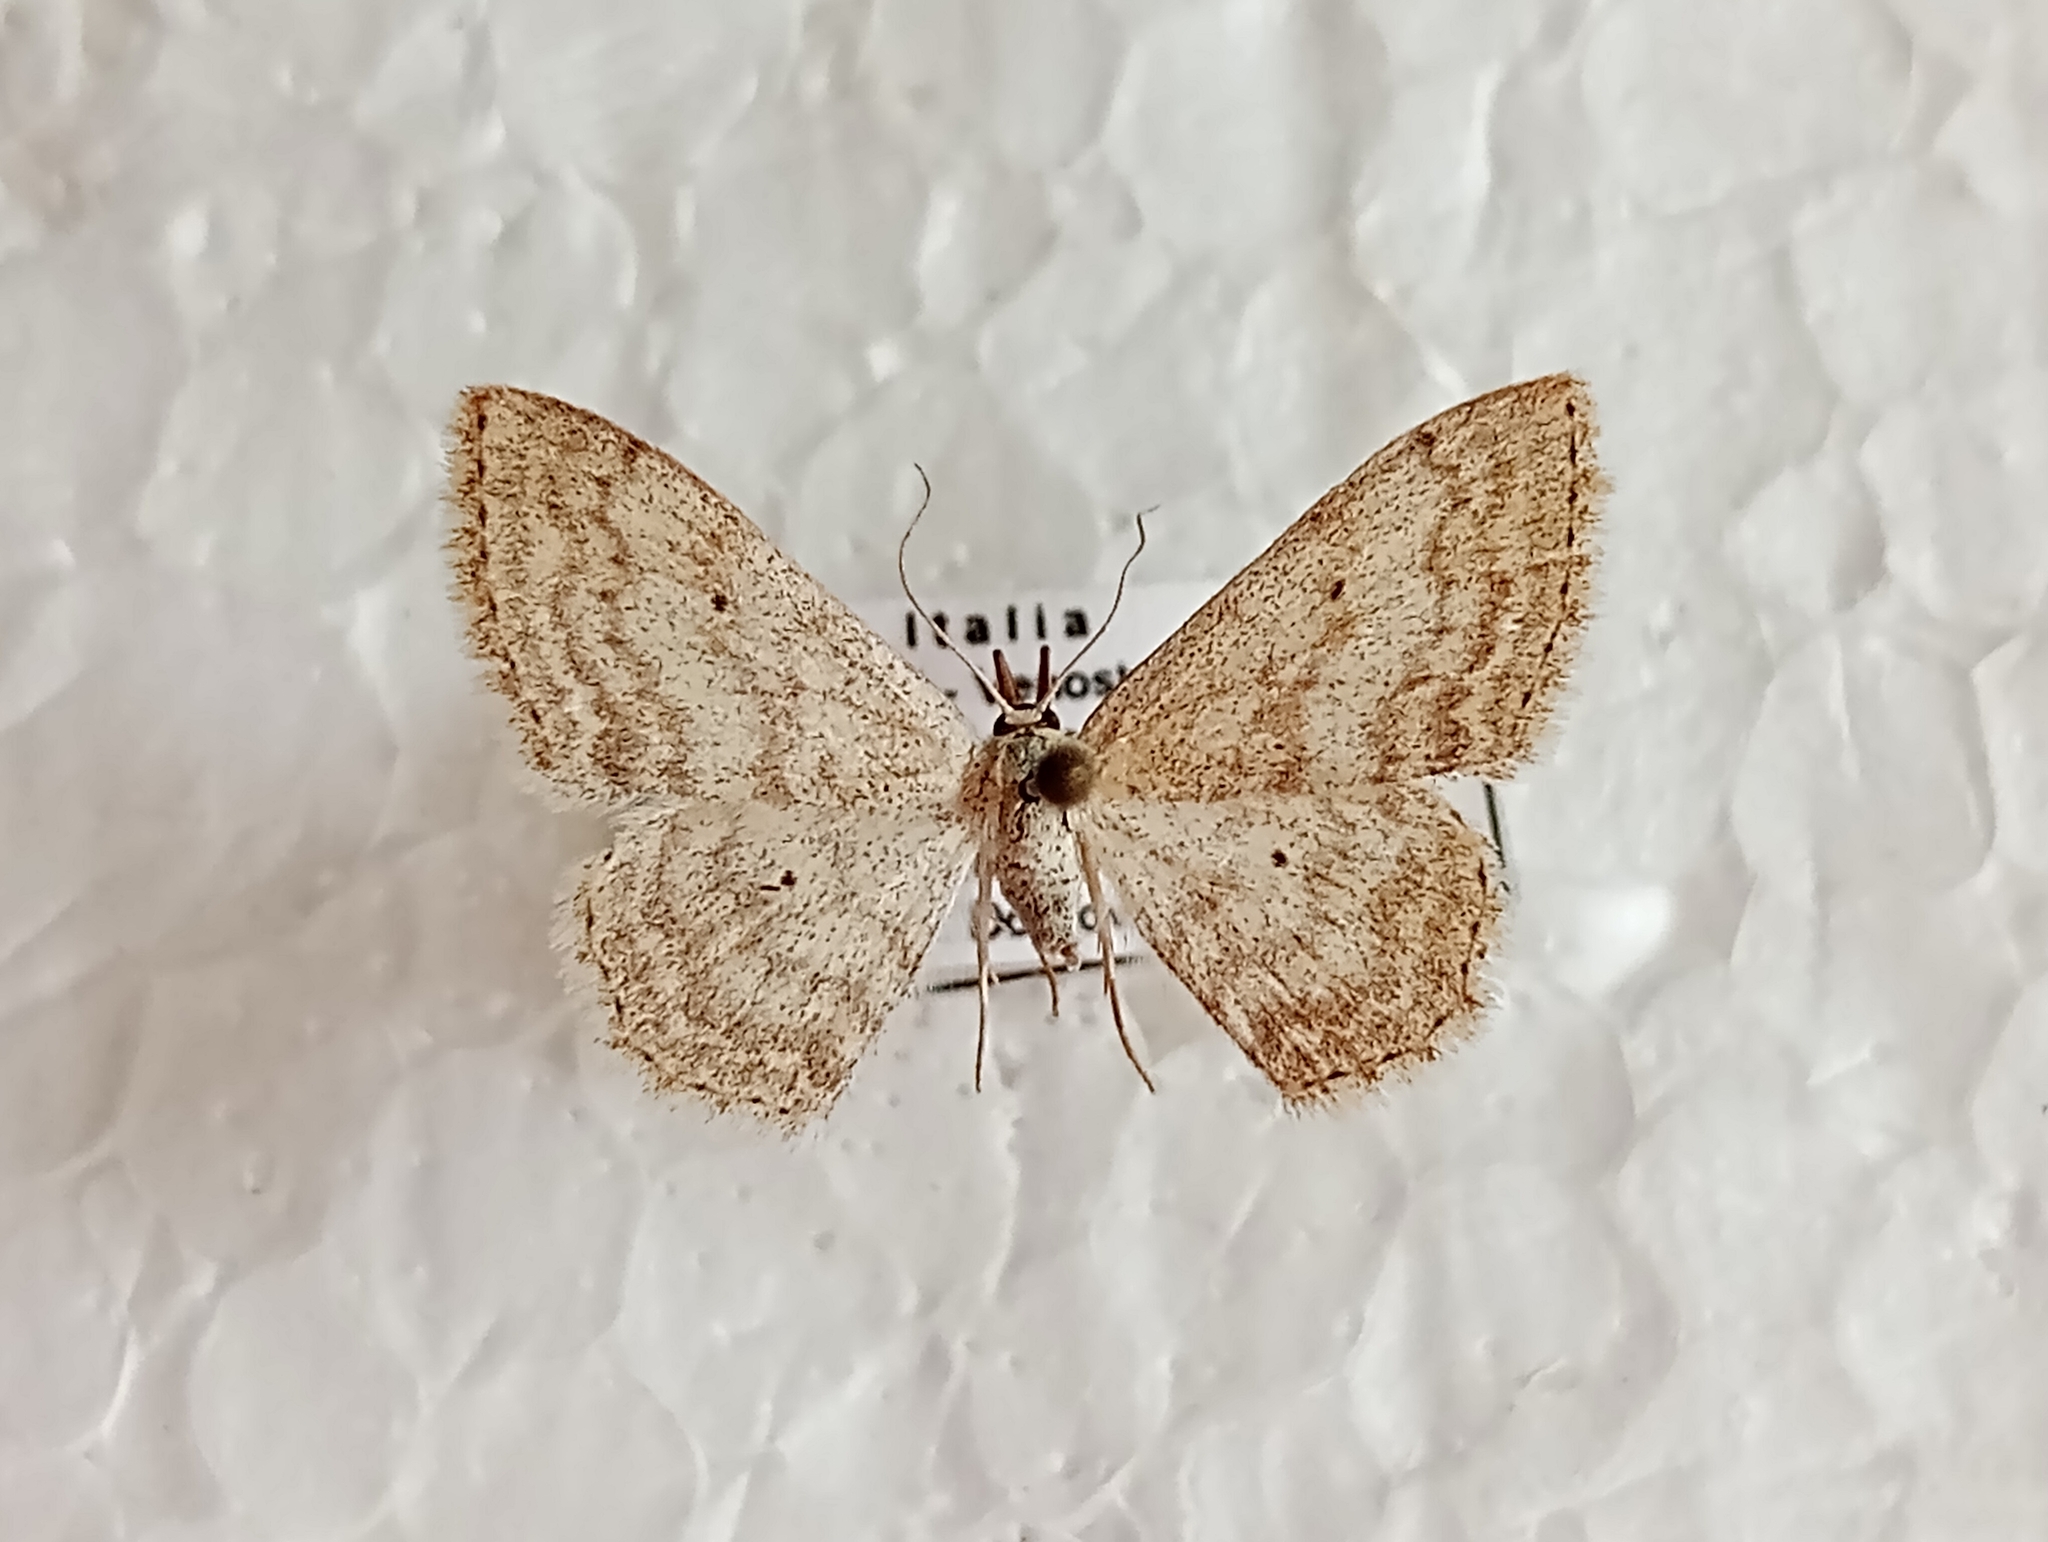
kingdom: Animalia
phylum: Arthropoda
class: Insecta
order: Lepidoptera
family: Geometridae
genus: Scopula
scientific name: Scopula incanata
